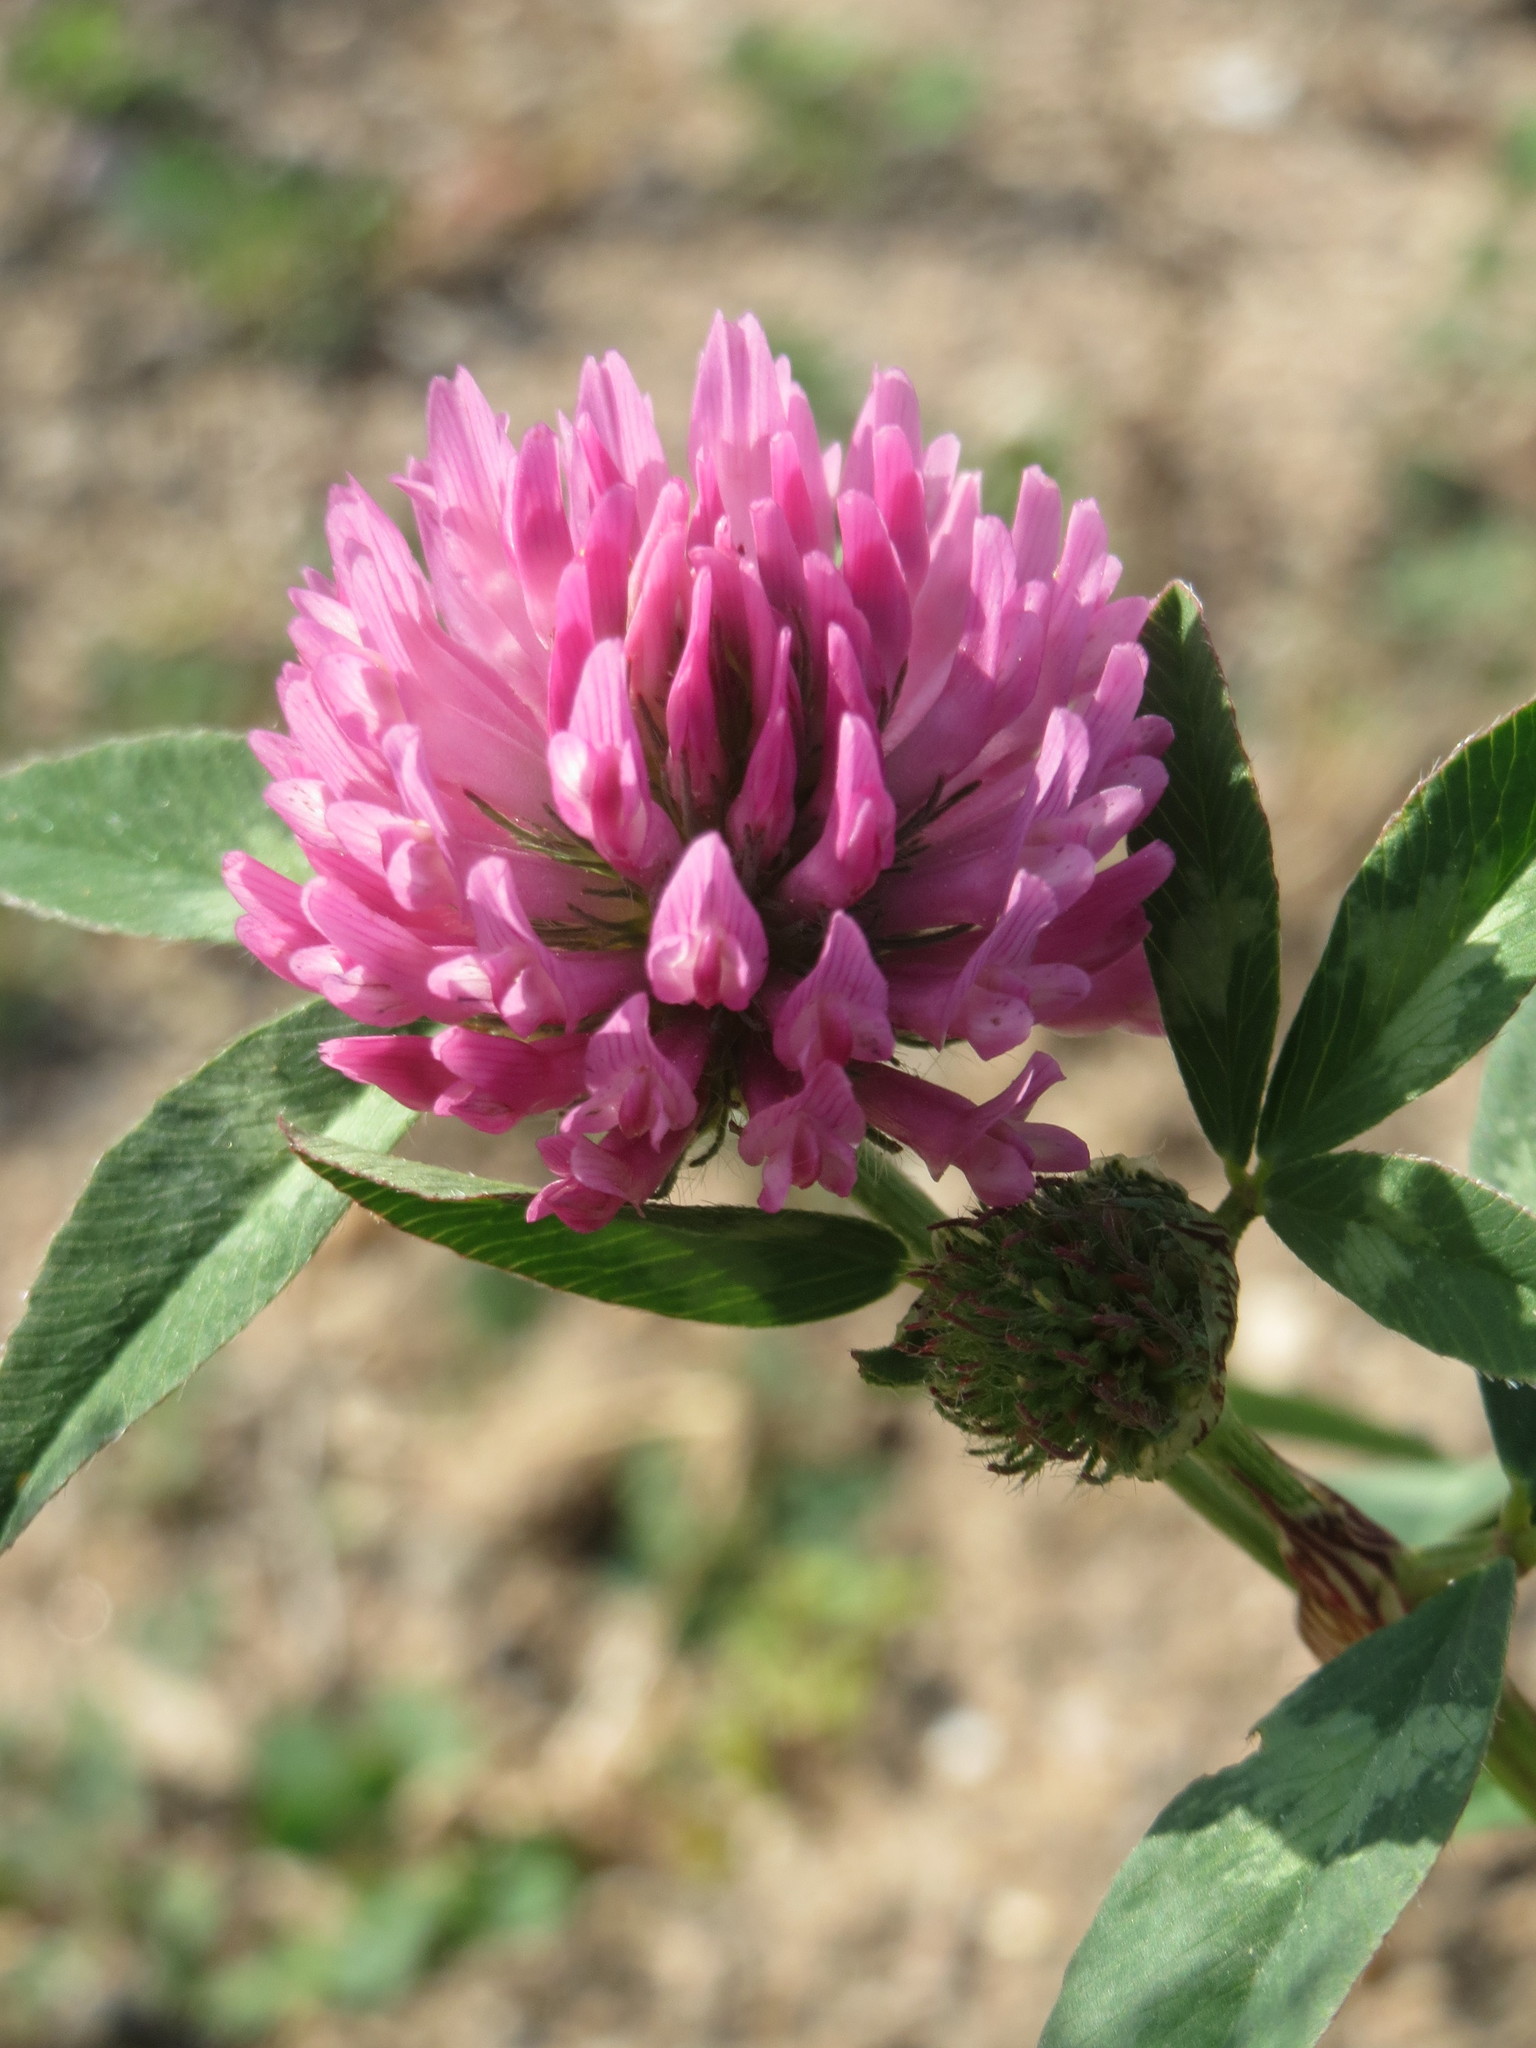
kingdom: Plantae
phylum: Tracheophyta
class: Magnoliopsida
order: Fabales
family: Fabaceae
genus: Trifolium
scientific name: Trifolium pratense
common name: Red clover
